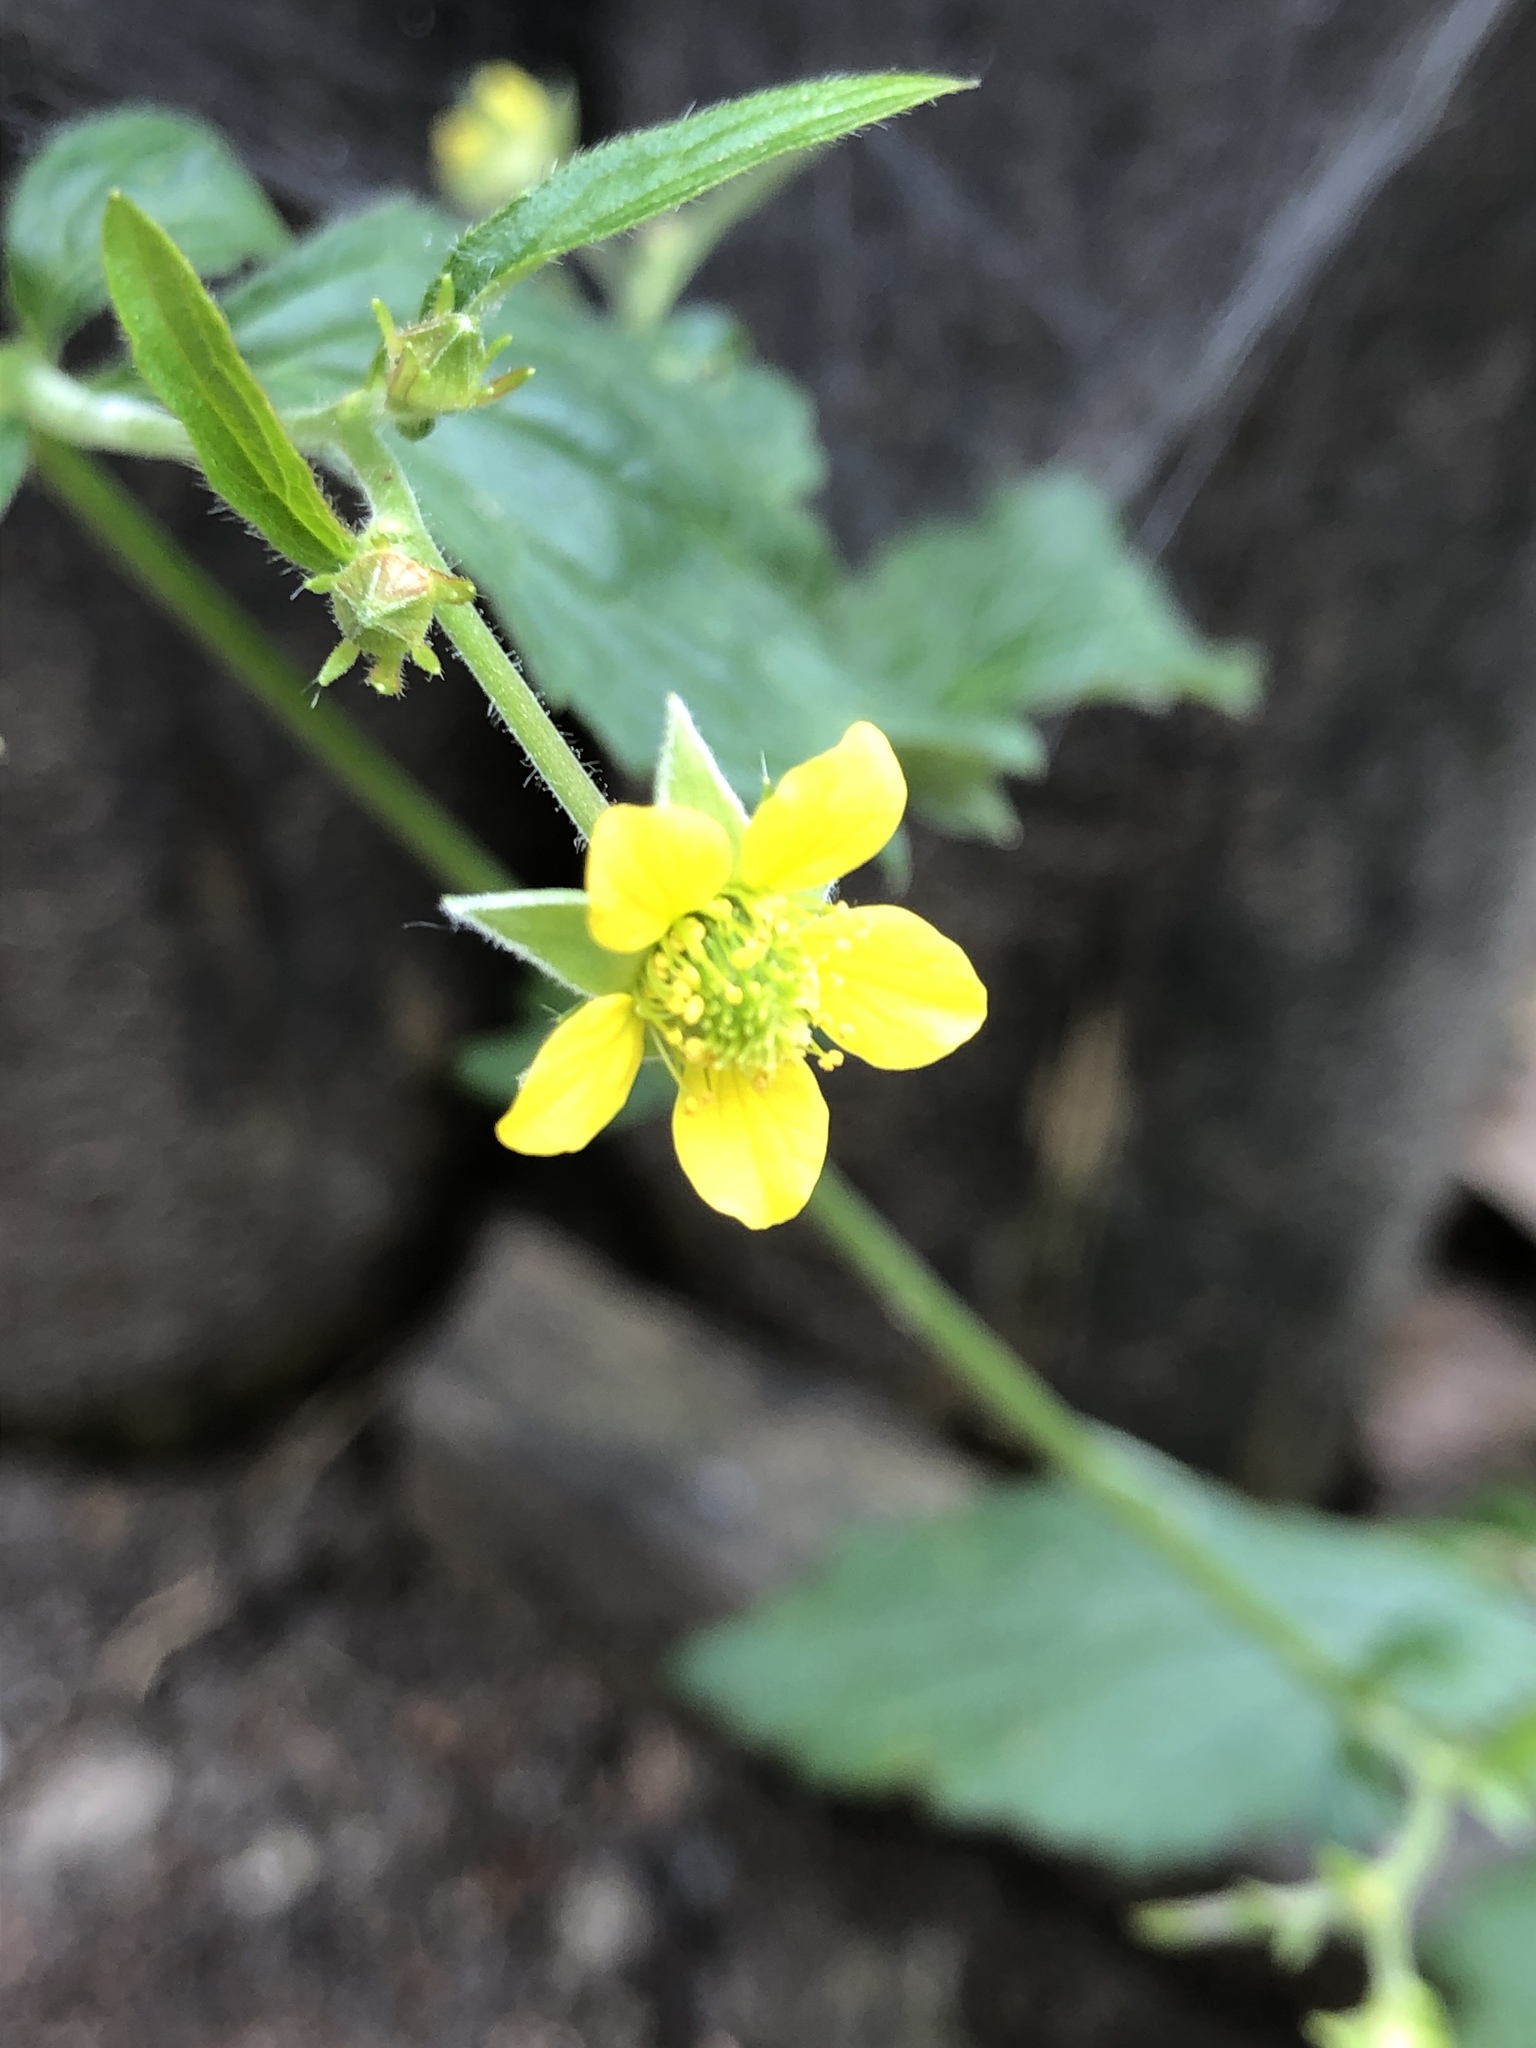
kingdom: Plantae
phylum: Tracheophyta
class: Magnoliopsida
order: Rosales
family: Rosaceae
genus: Geum
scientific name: Geum urbanum
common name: Wood avens
